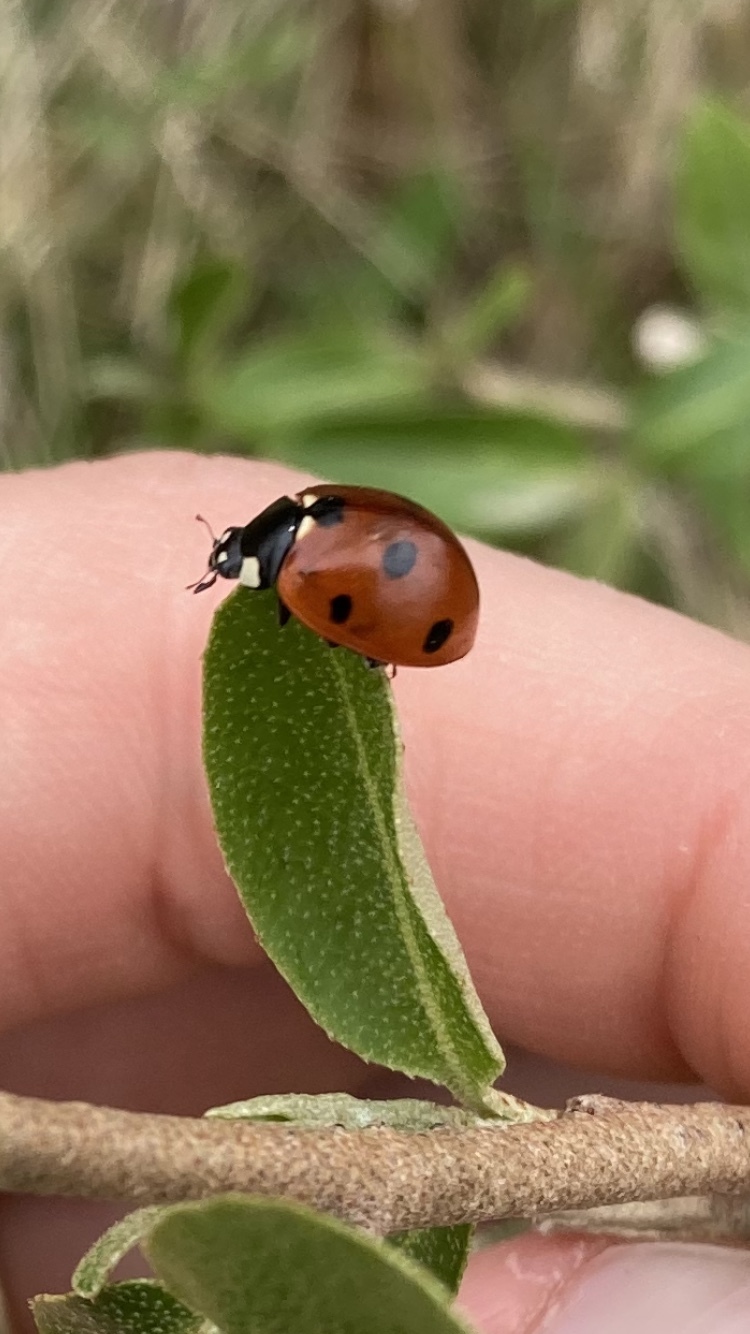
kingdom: Animalia
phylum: Arthropoda
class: Insecta
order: Coleoptera
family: Coccinellidae
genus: Coccinella
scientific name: Coccinella septempunctata
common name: Sevenspotted lady beetle
